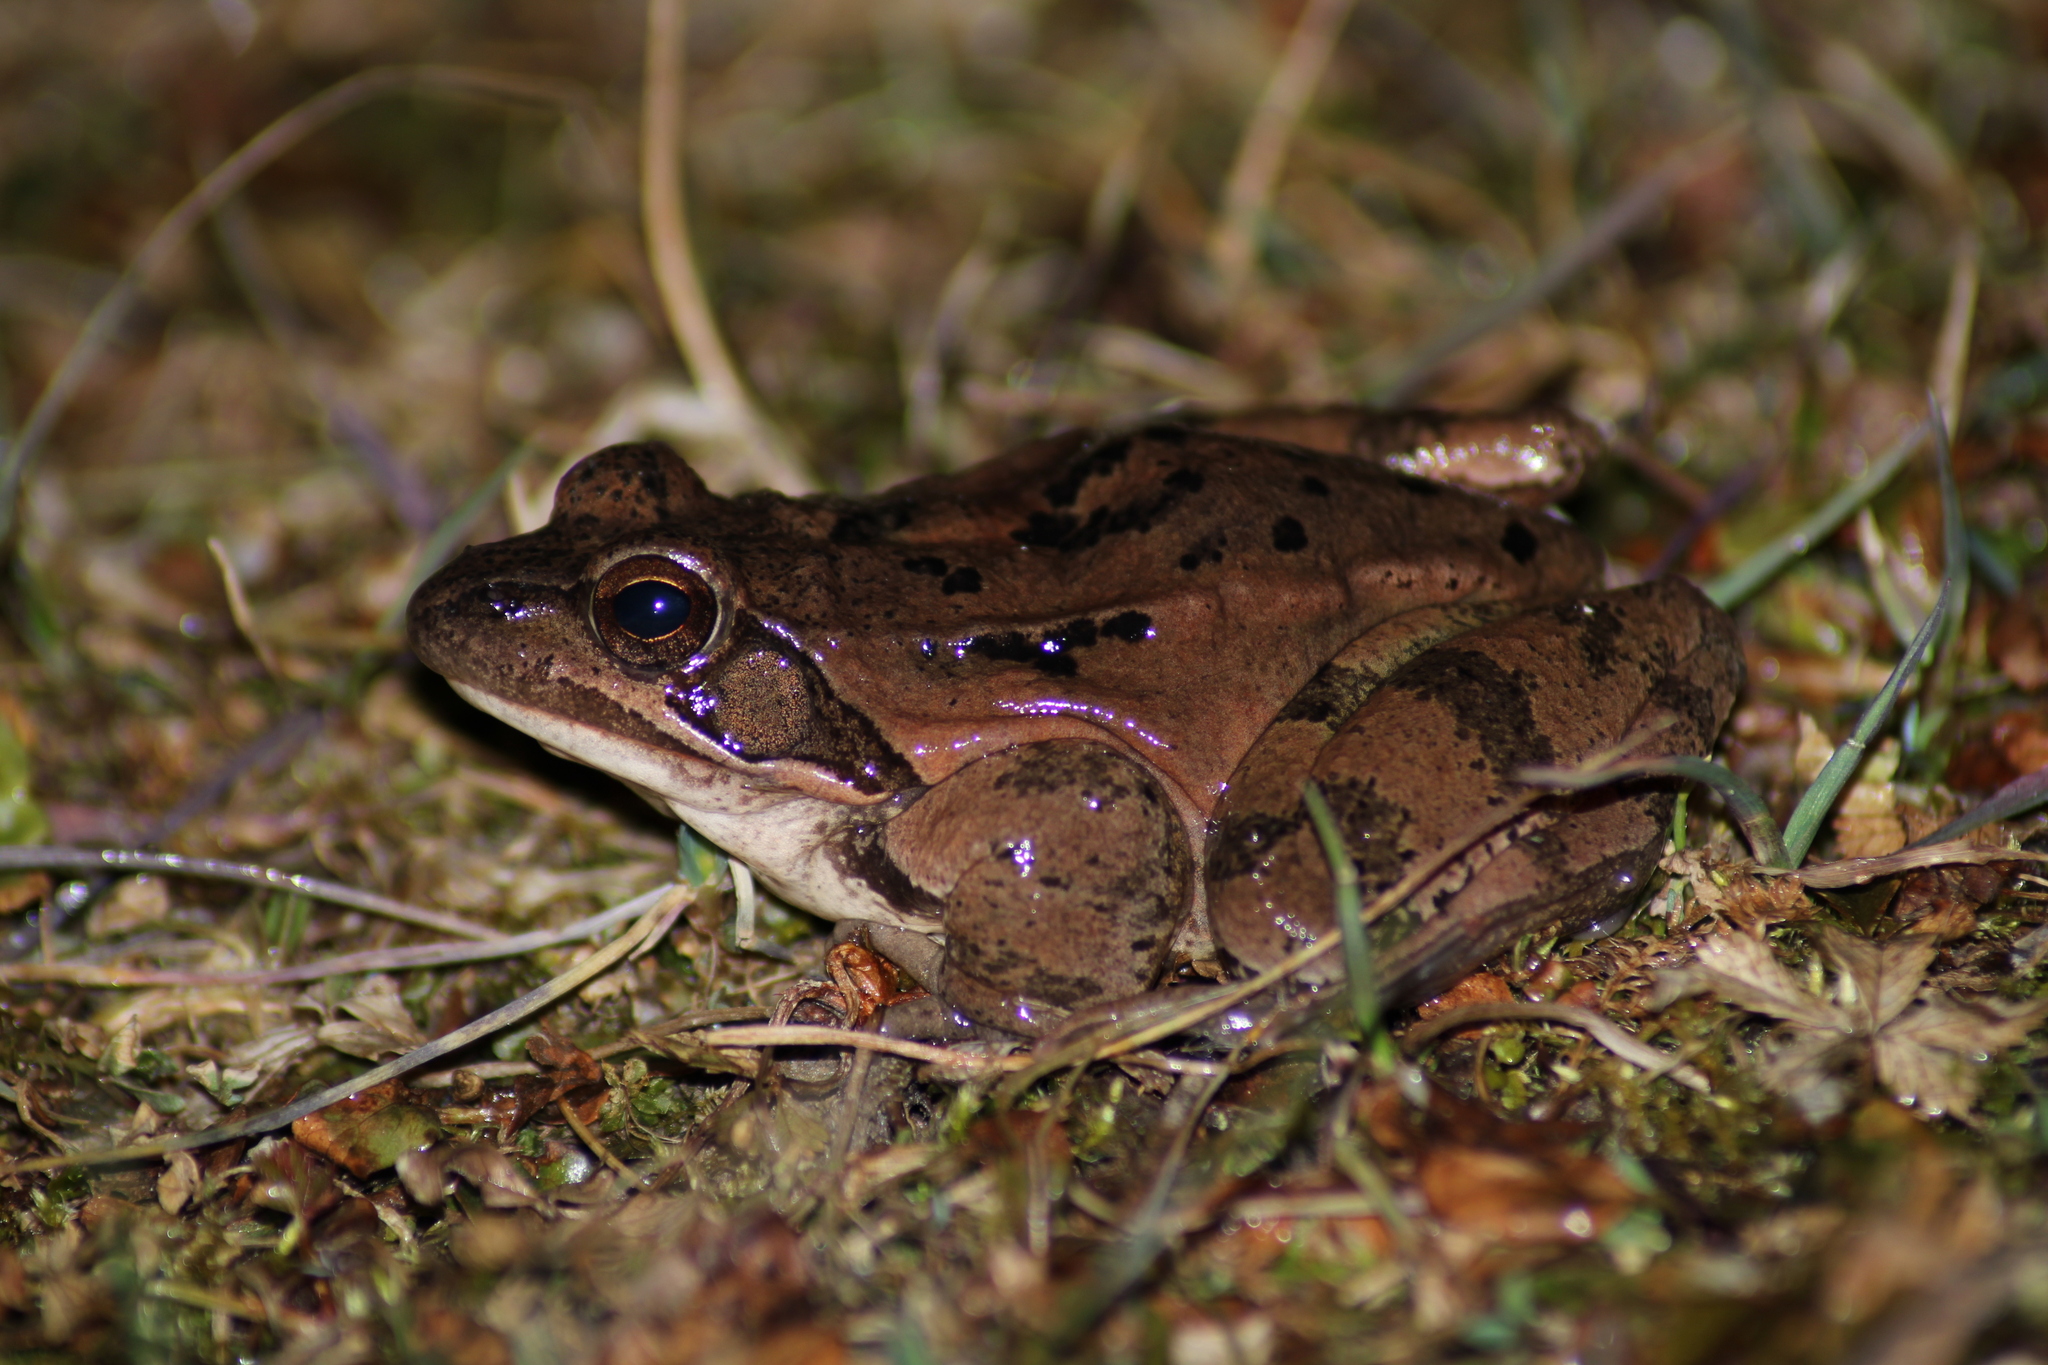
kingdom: Animalia
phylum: Chordata
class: Amphibia
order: Anura
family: Ranidae
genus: Rana
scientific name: Rana dalmatina
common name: Agile frog
